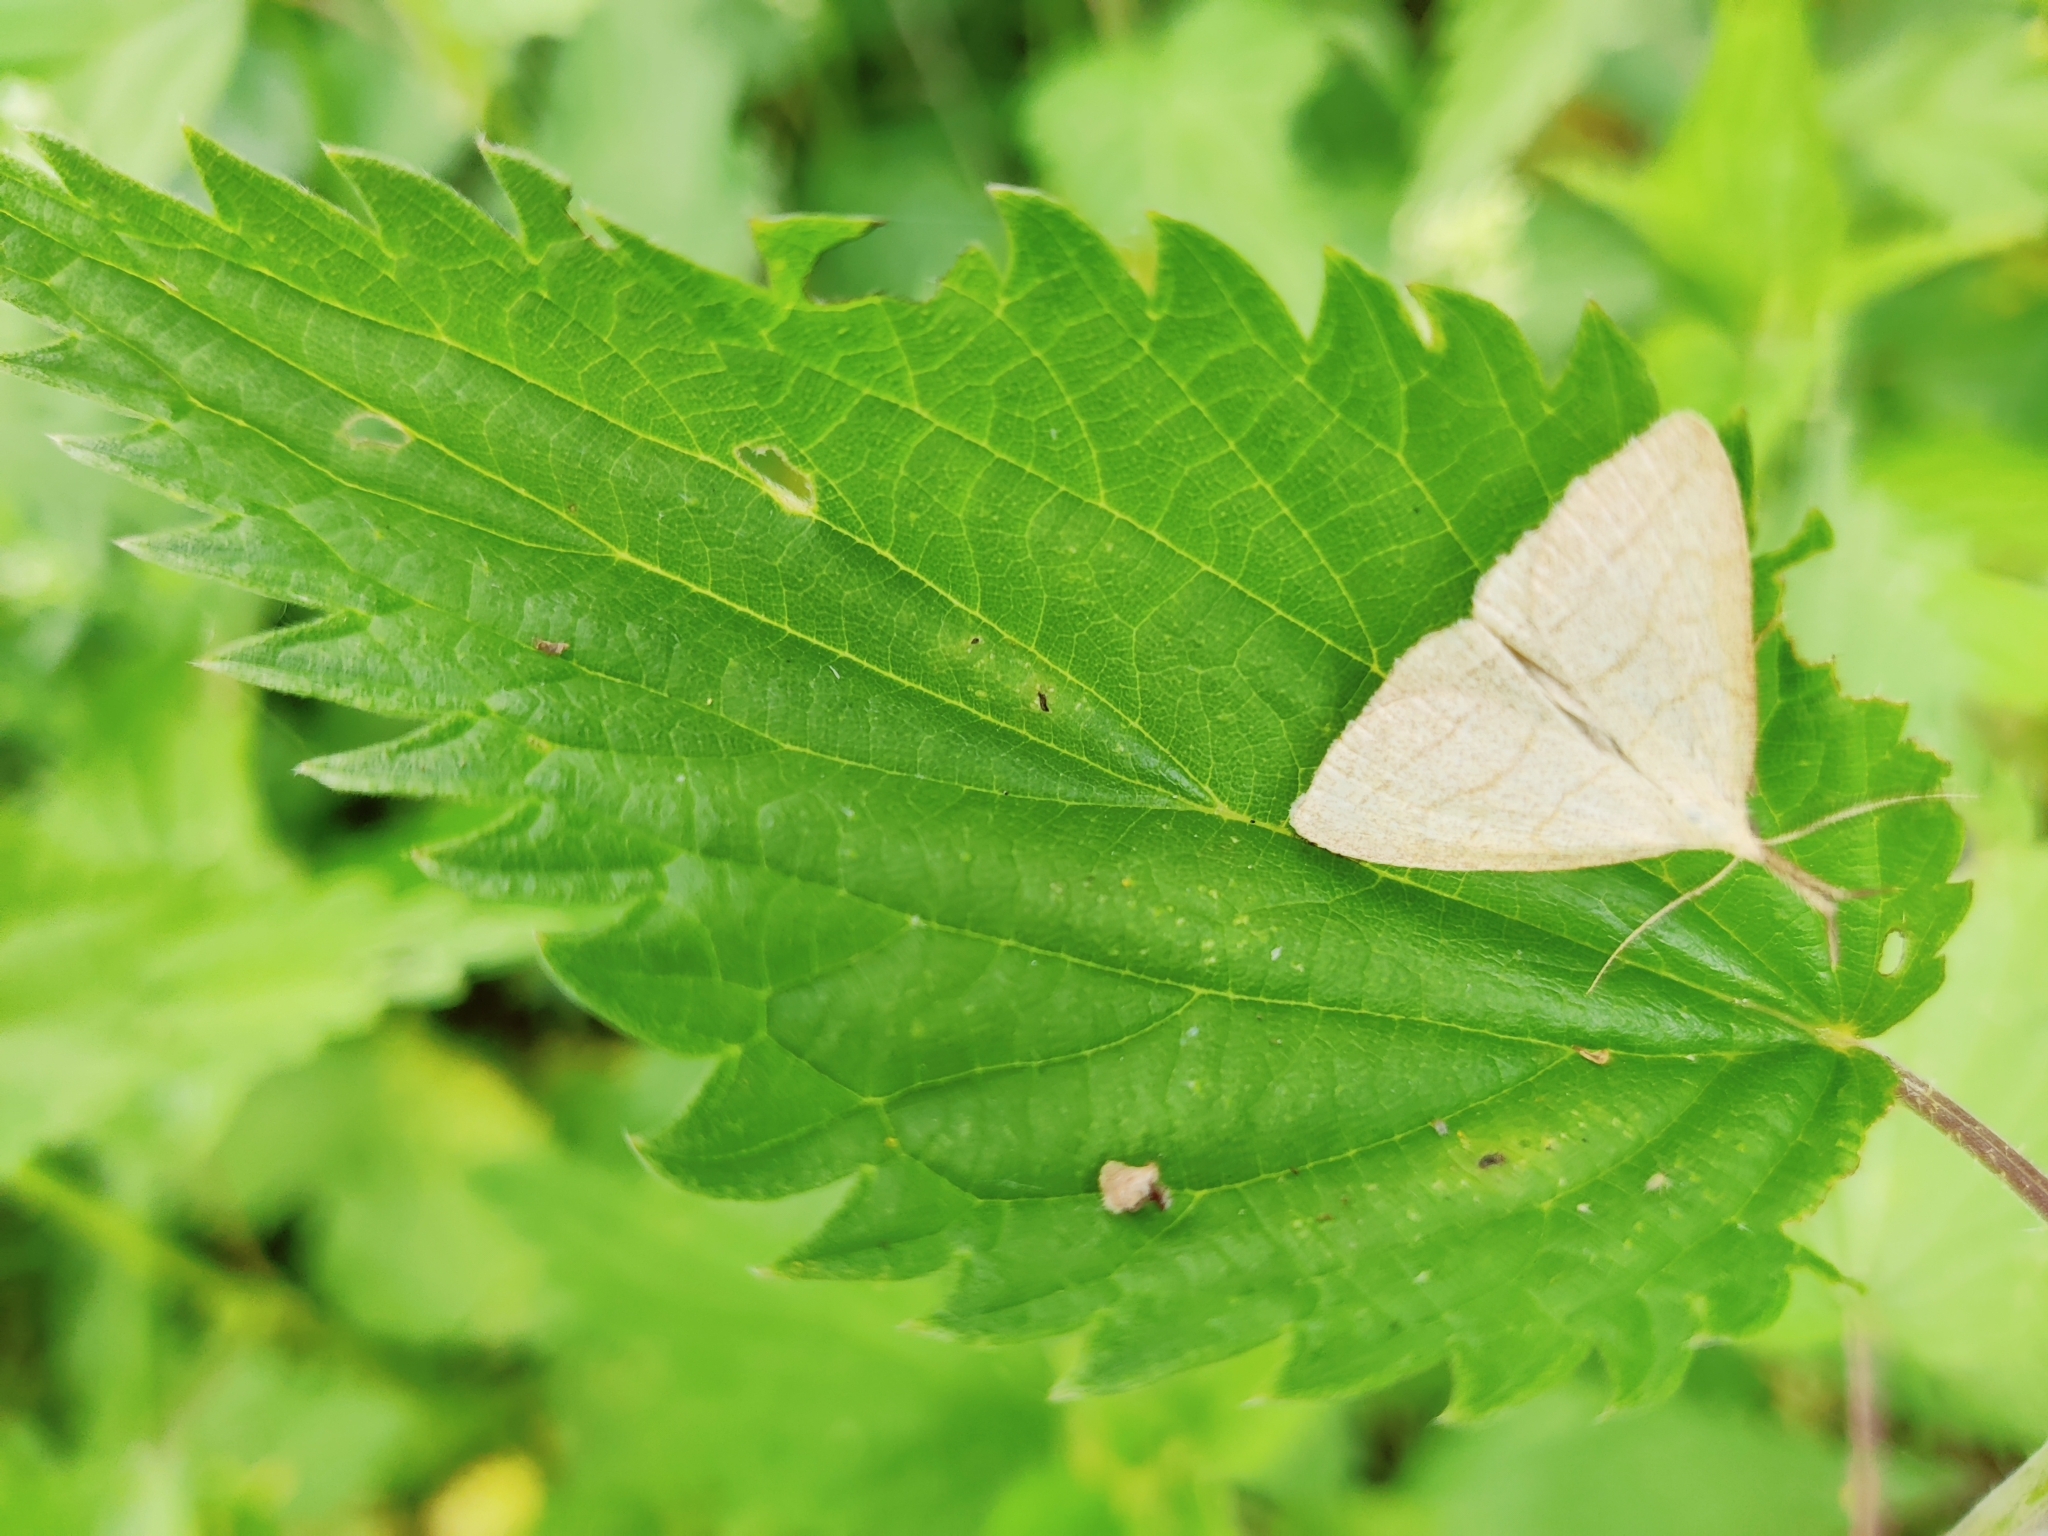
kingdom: Animalia
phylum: Arthropoda
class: Insecta
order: Lepidoptera
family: Erebidae
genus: Polypogon
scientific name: Polypogon tentacularia
